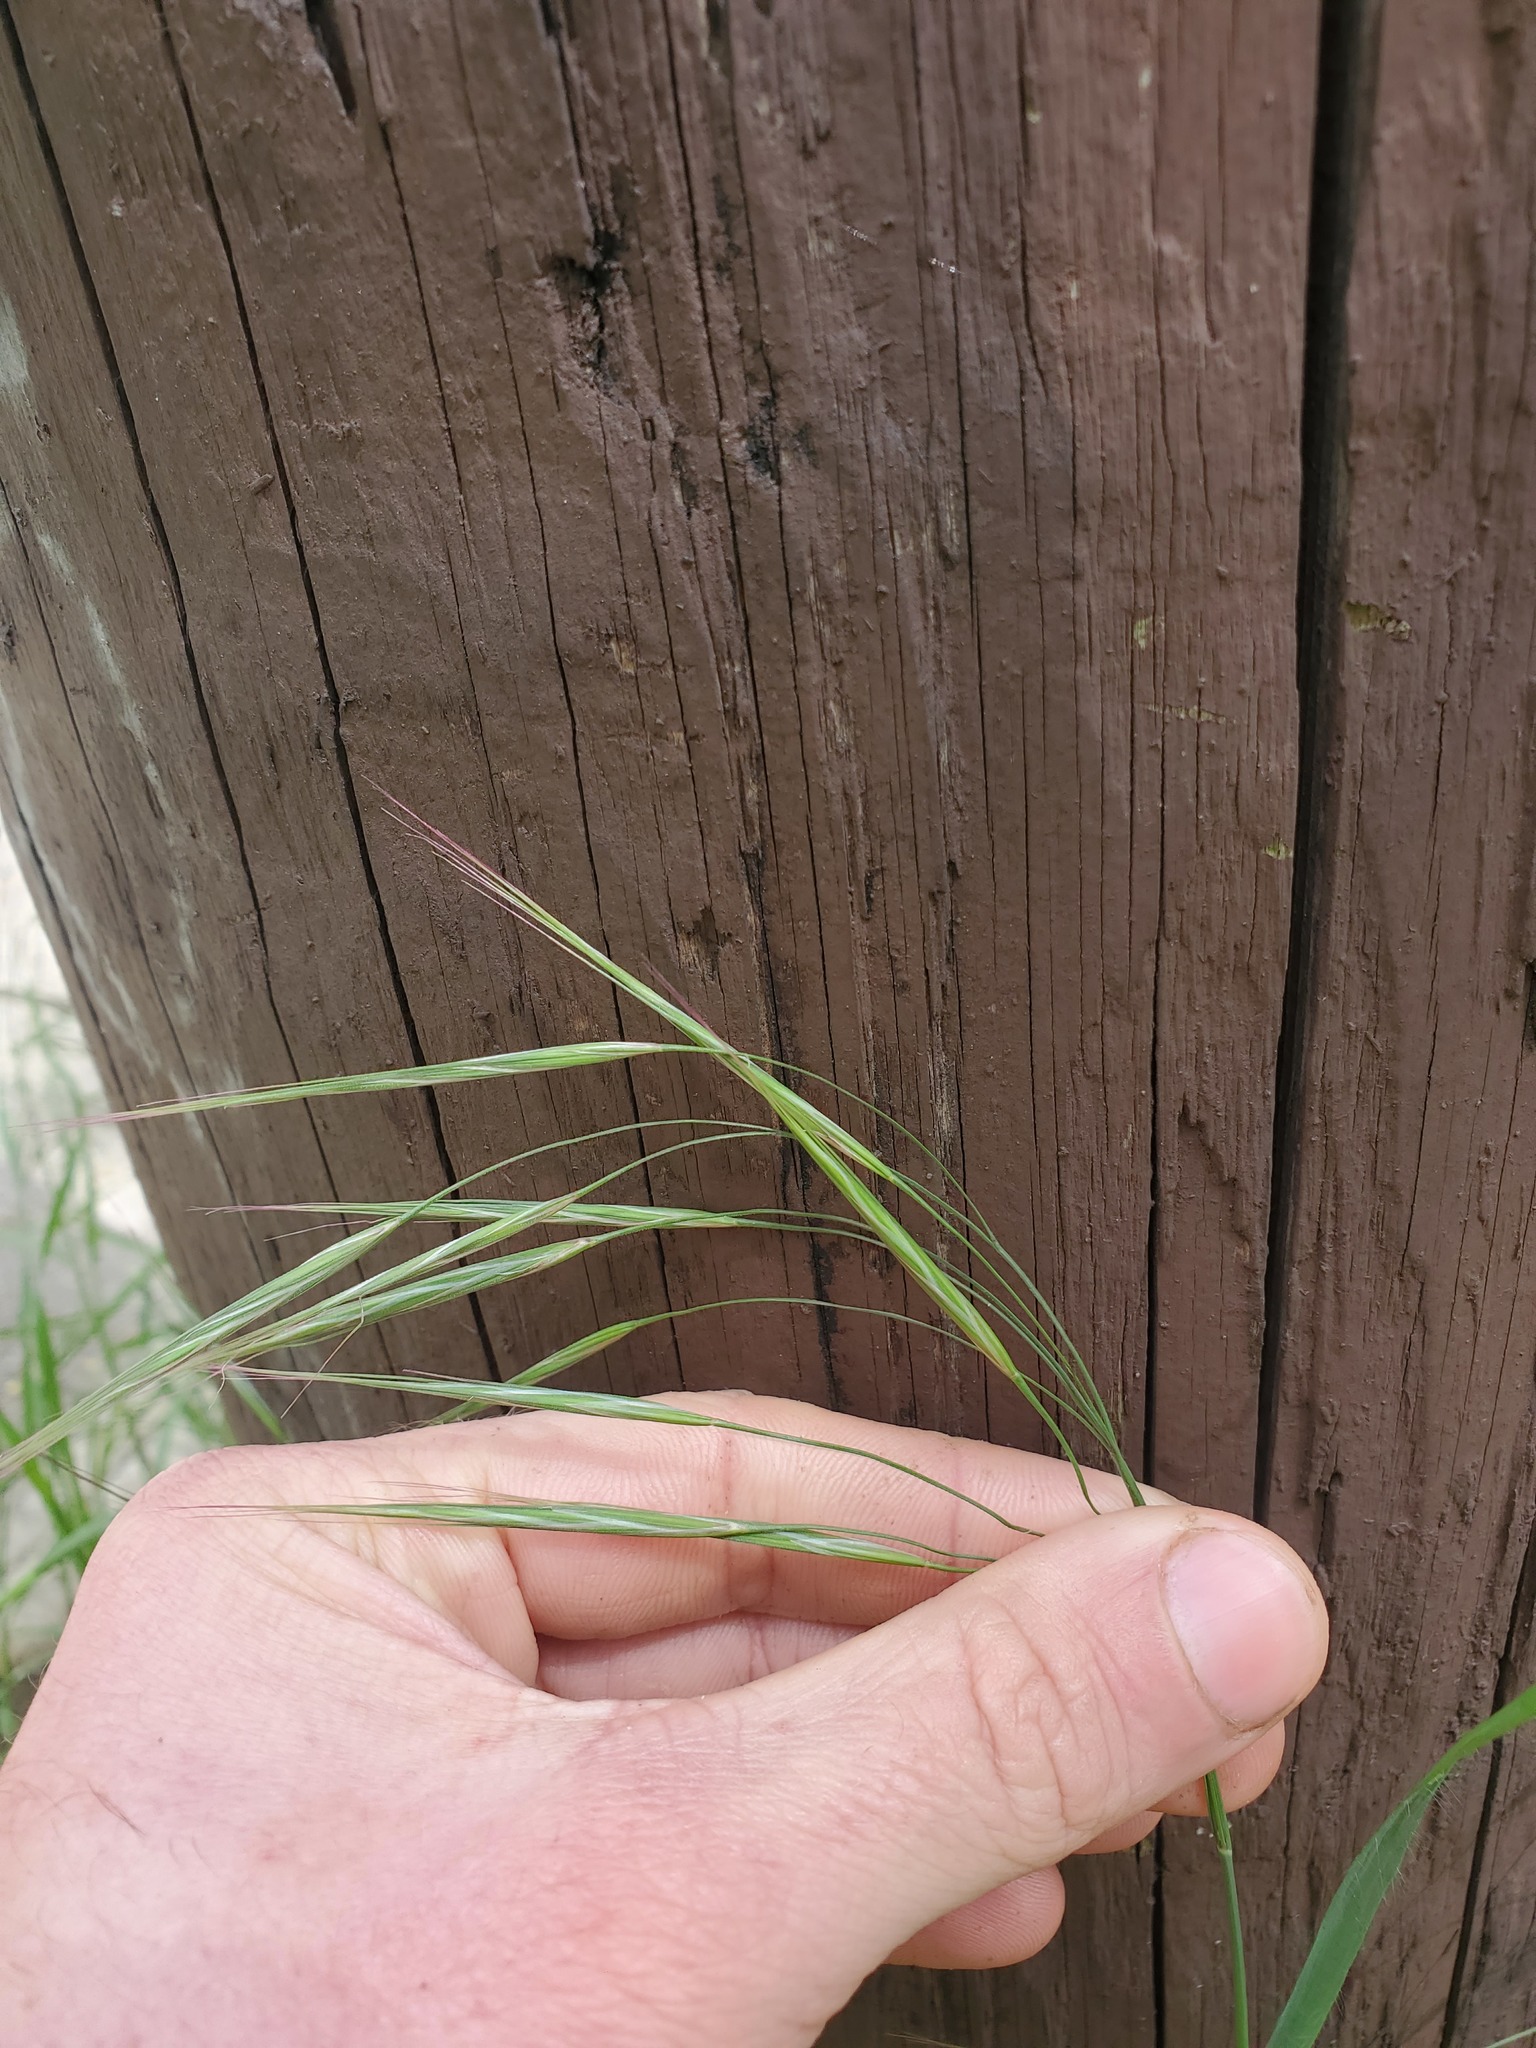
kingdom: Plantae
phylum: Tracheophyta
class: Liliopsida
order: Poales
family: Poaceae
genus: Bromus
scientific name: Bromus tectorum
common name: Cheatgrass
